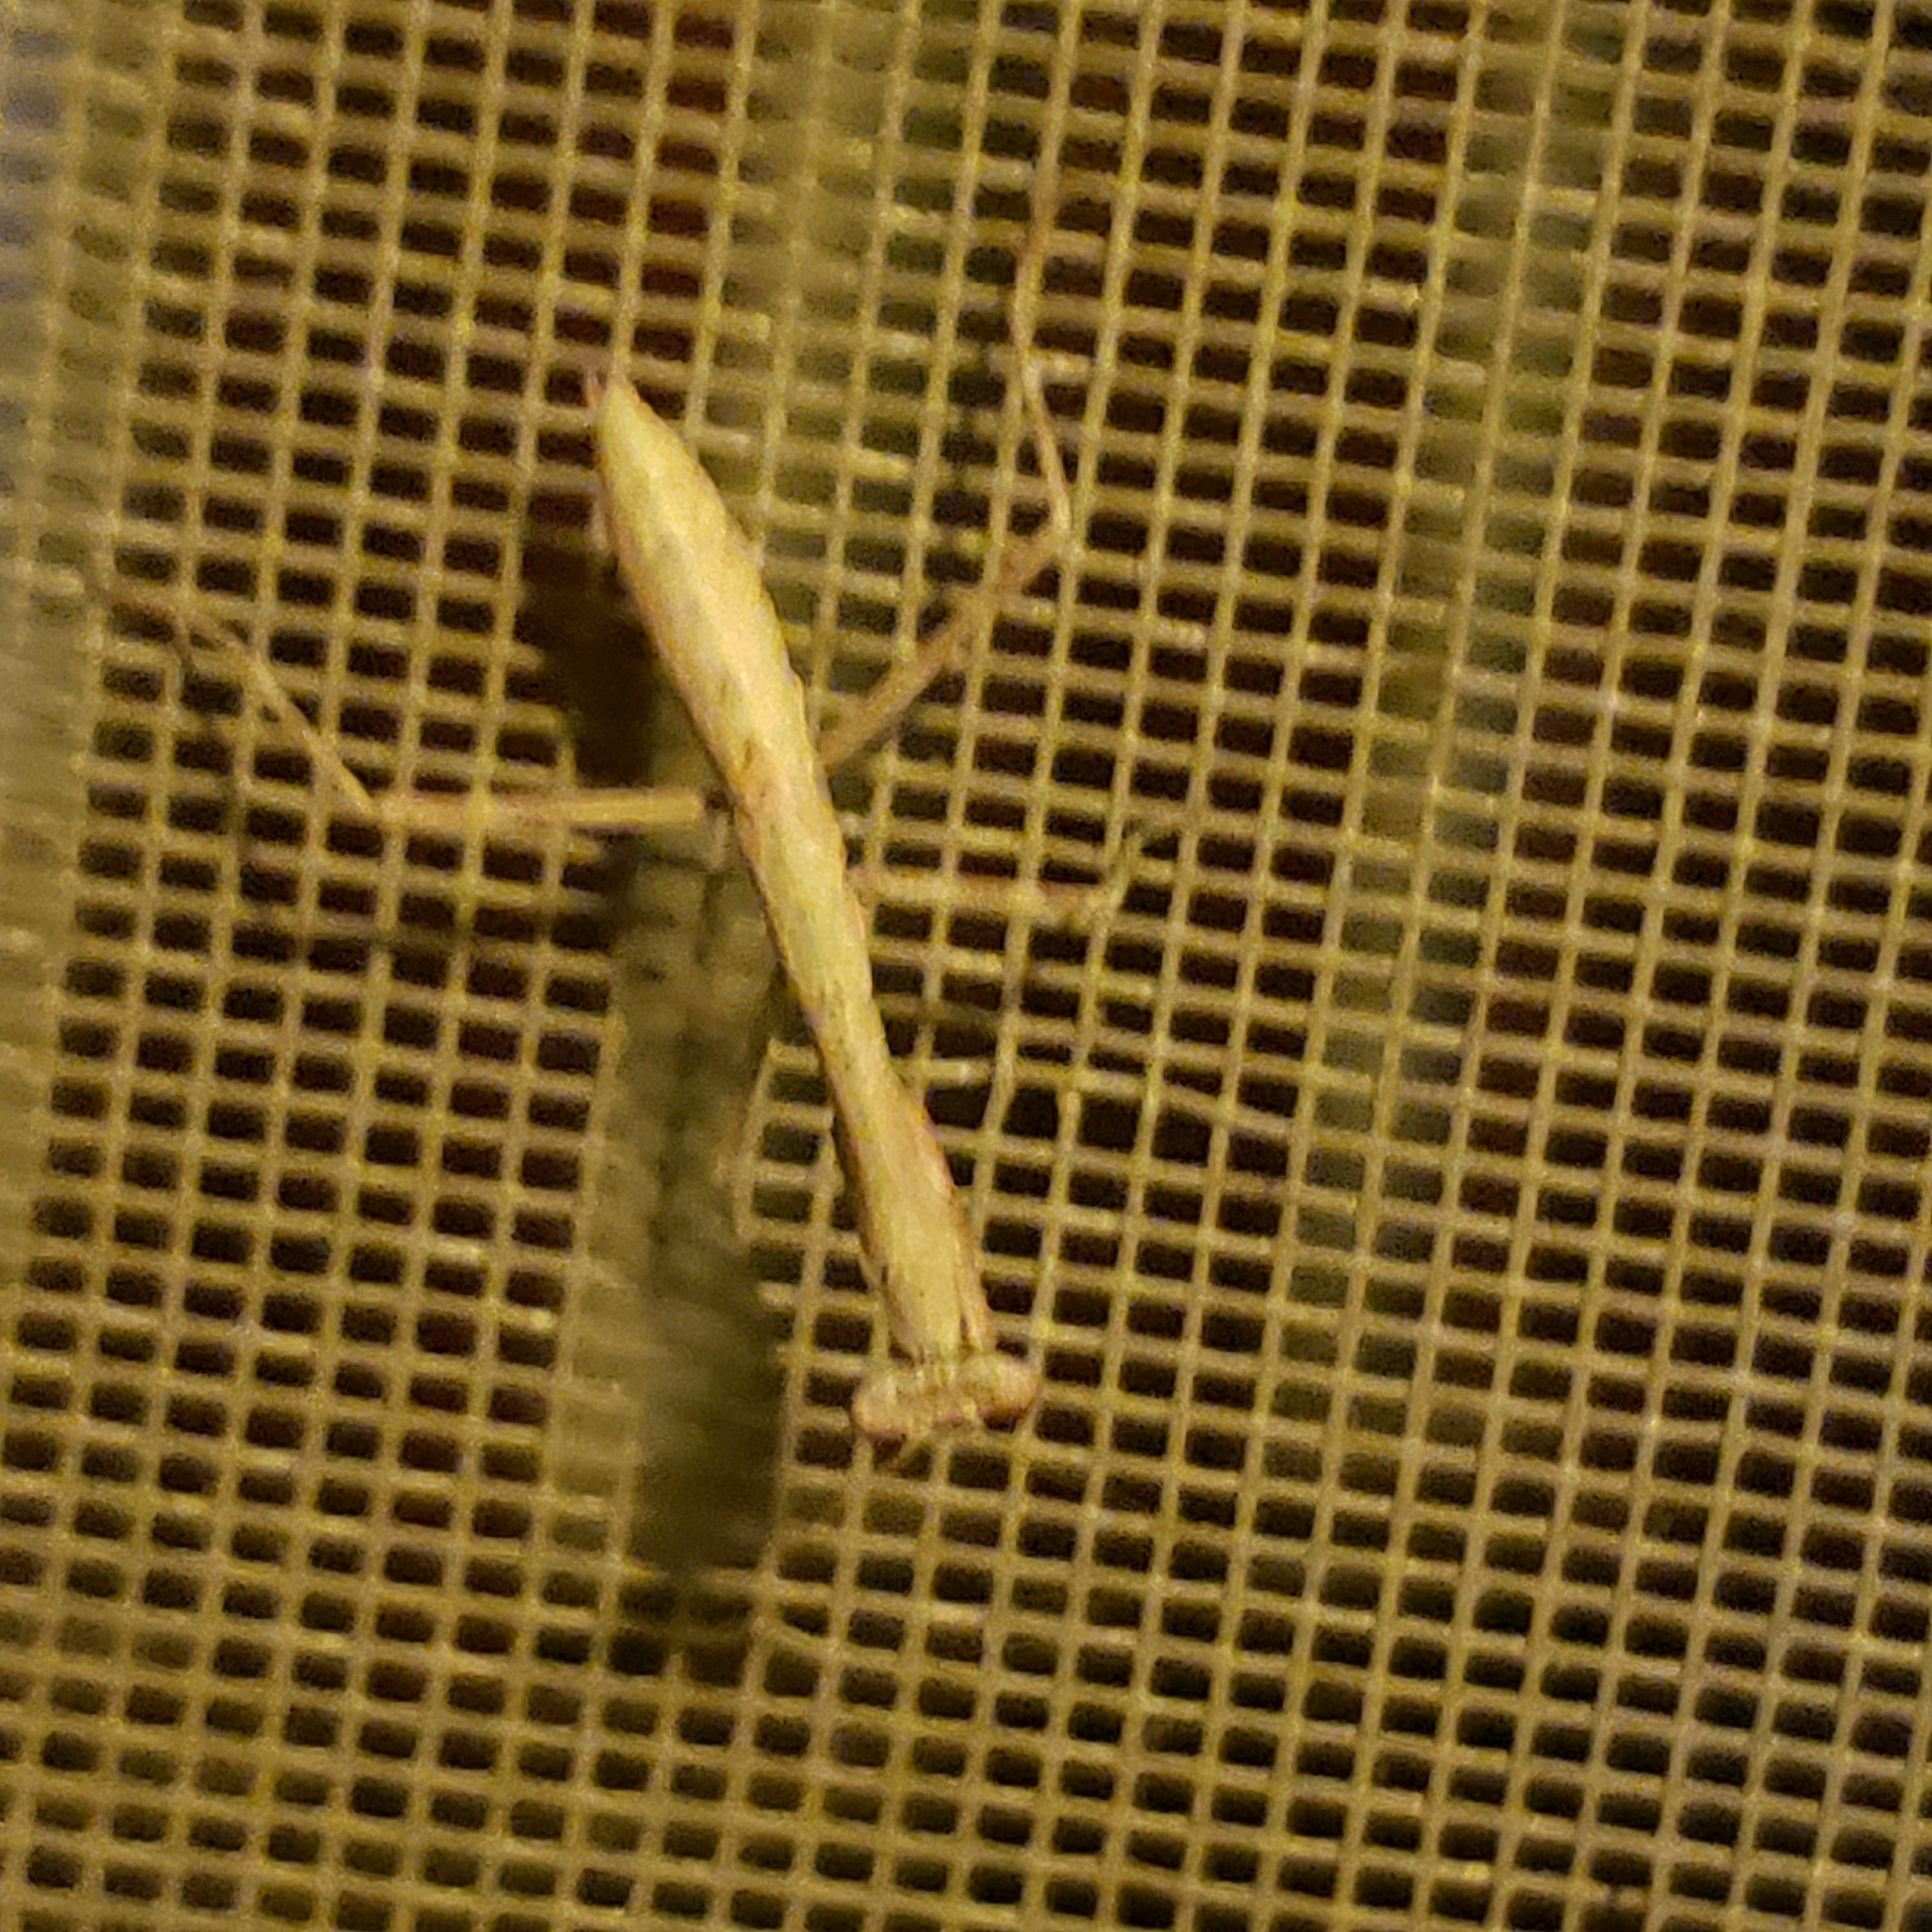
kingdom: Animalia
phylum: Arthropoda
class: Insecta
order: Mantodea
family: Mantidae
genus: Stagmomantis
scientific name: Stagmomantis carolina
